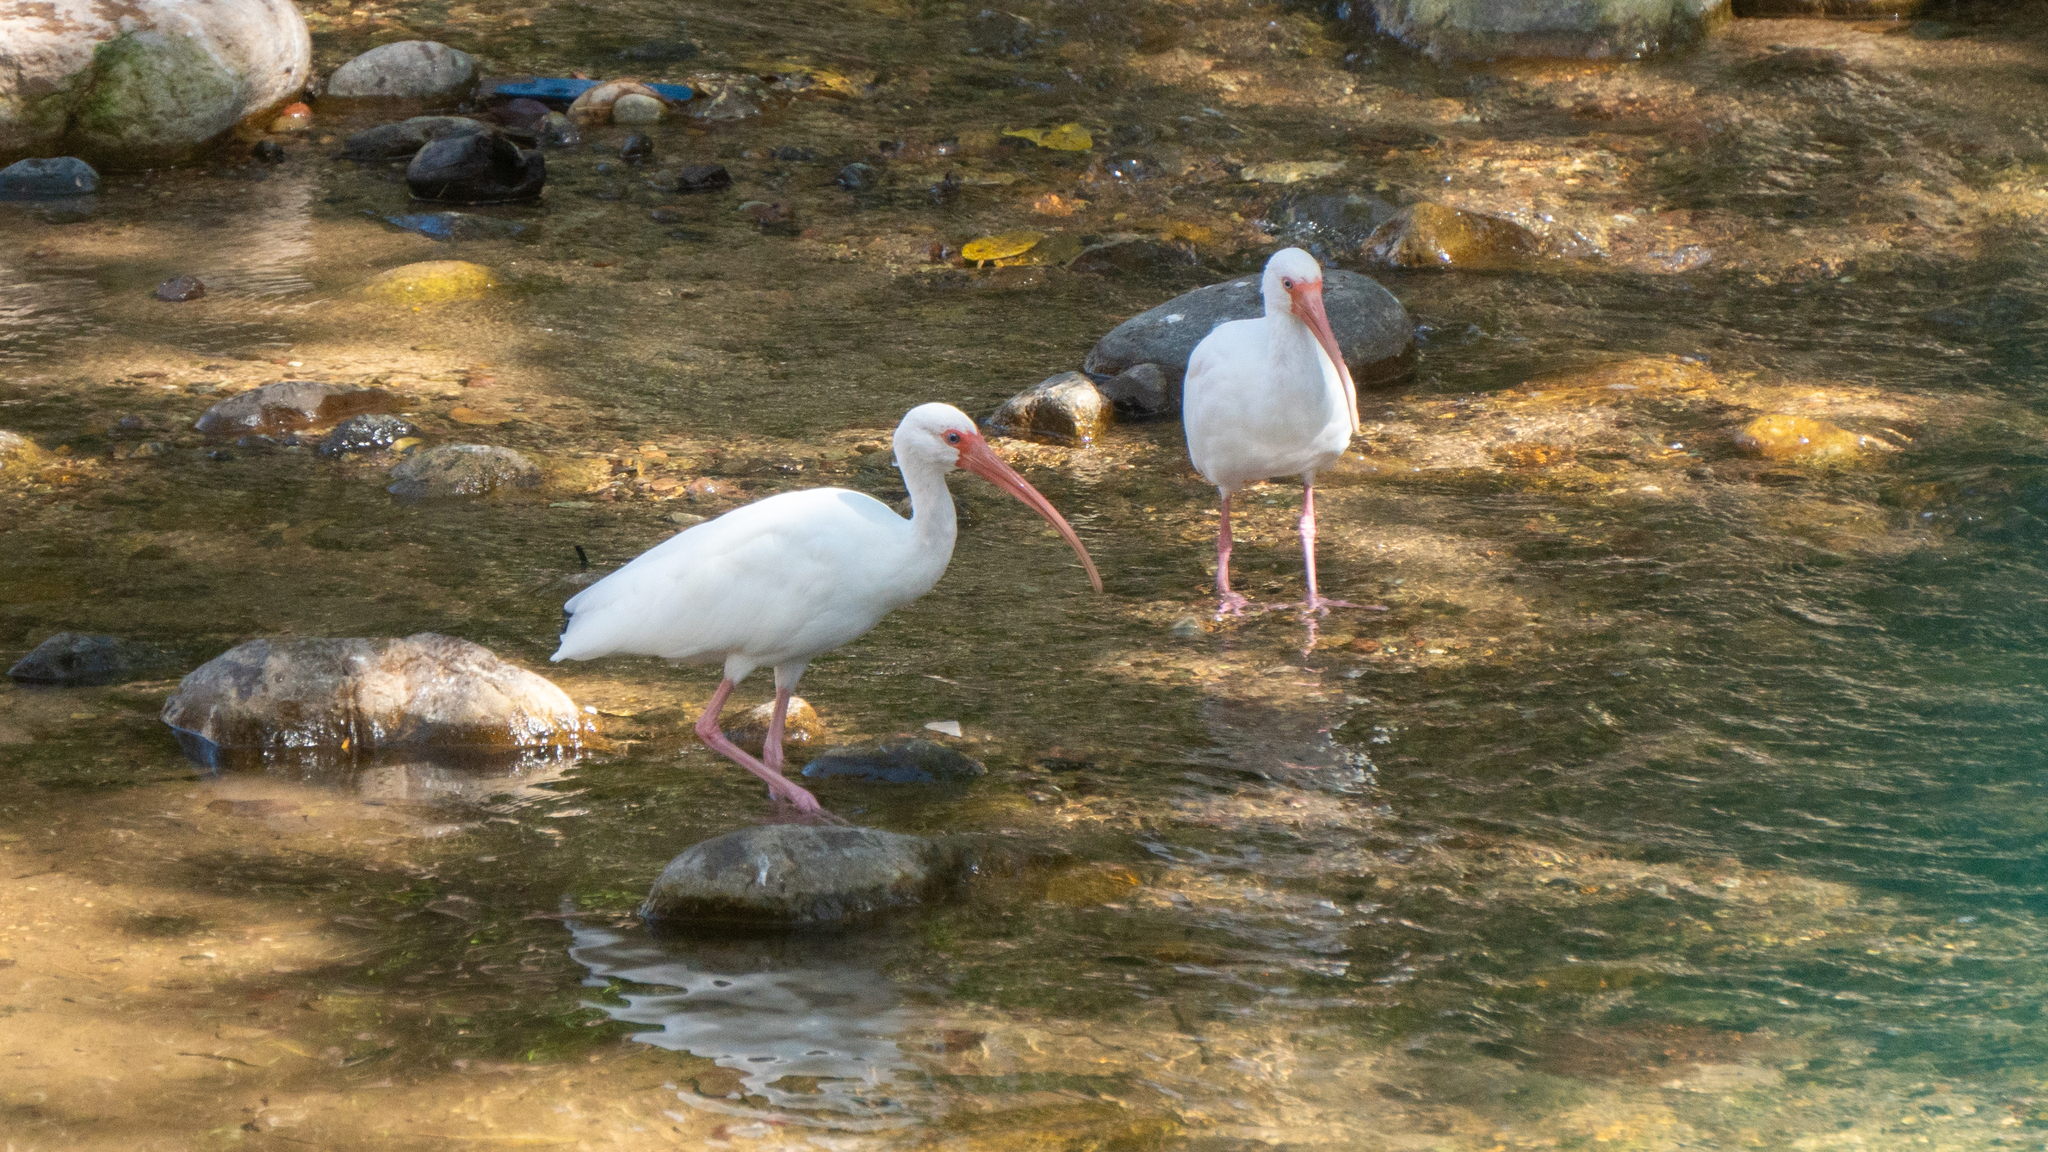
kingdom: Animalia
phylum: Chordata
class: Aves
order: Pelecaniformes
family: Threskiornithidae
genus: Eudocimus
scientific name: Eudocimus albus
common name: White ibis
